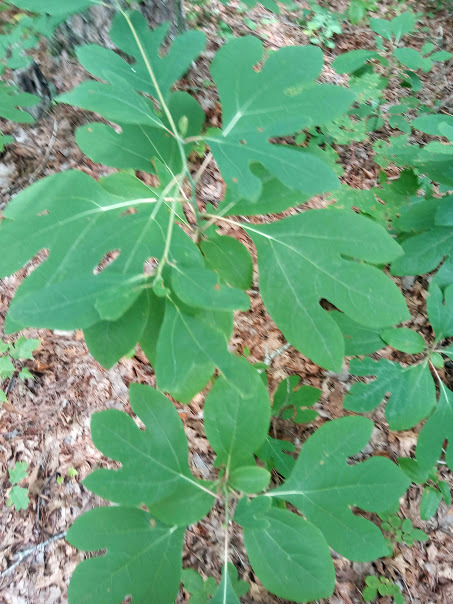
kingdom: Plantae
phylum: Tracheophyta
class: Magnoliopsida
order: Laurales
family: Lauraceae
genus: Sassafras
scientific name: Sassafras albidum
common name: Sassafras
